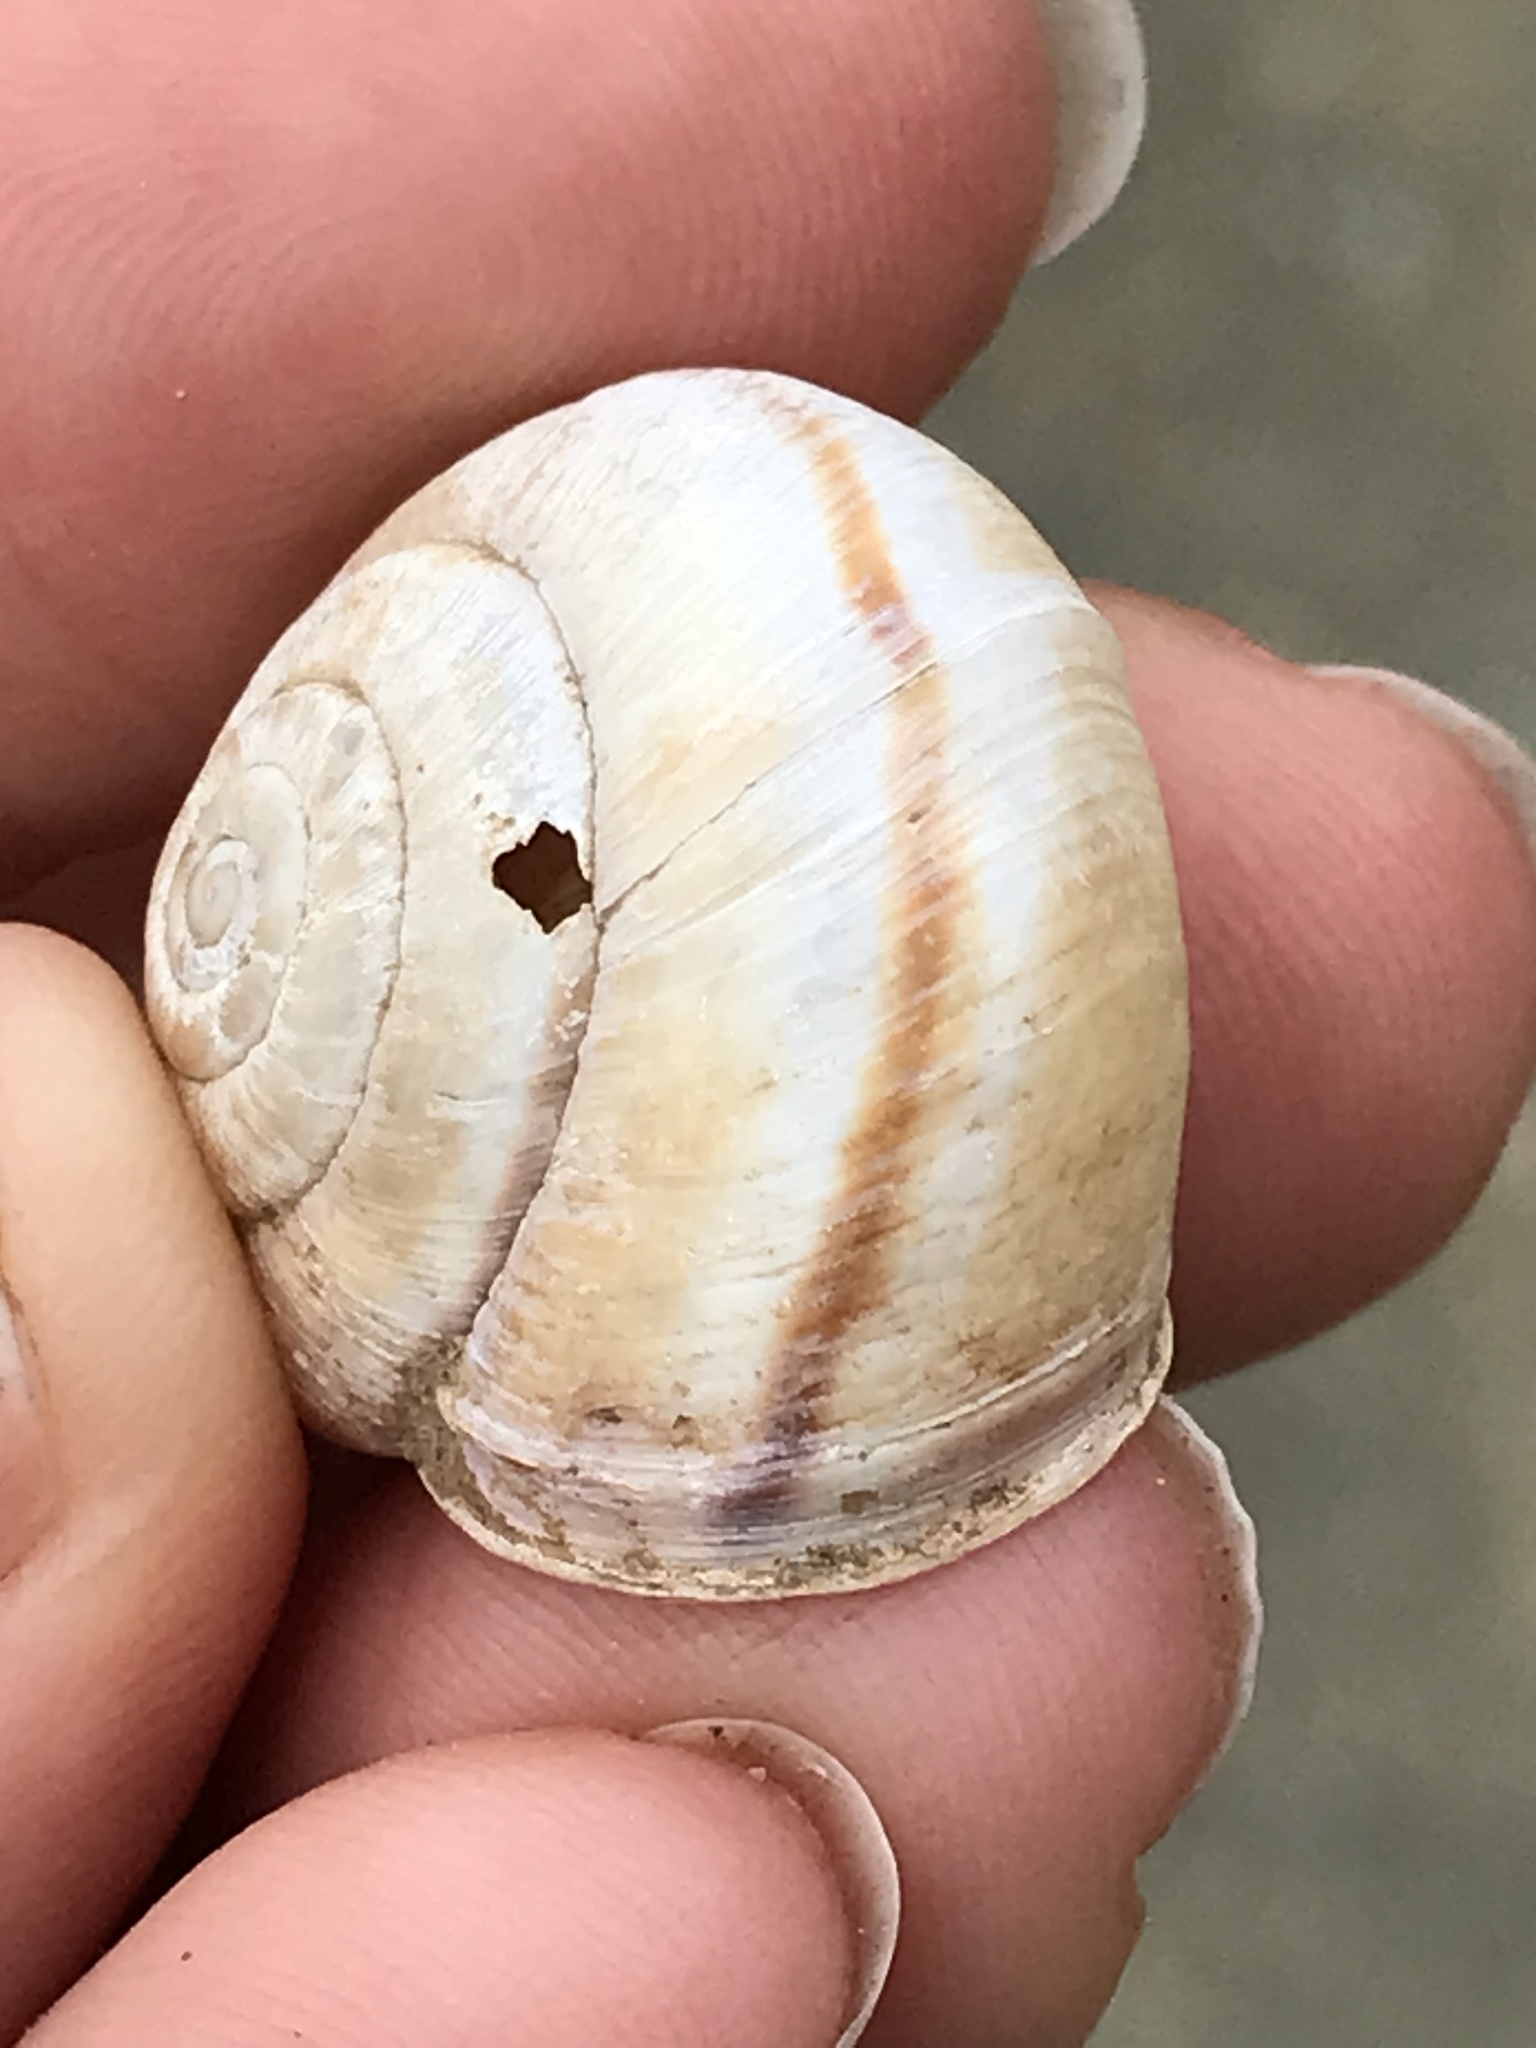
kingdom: Animalia
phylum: Mollusca
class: Gastropoda
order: Stylommatophora
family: Xanthonychidae
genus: Helminthoglypta
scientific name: Helminthoglypta umbilicata
